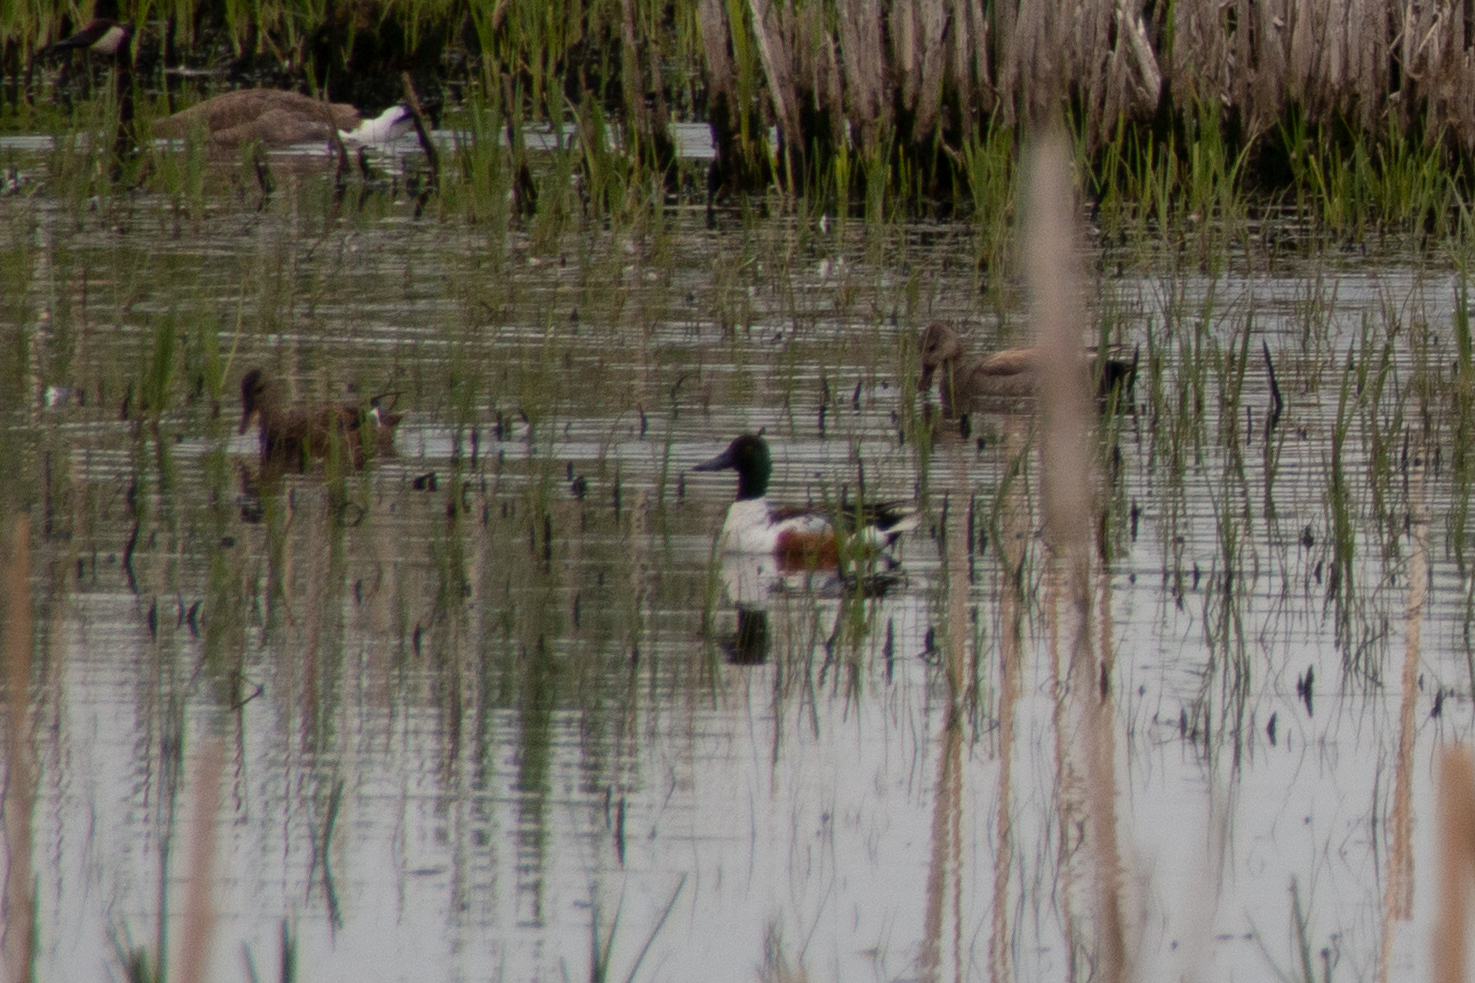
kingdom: Animalia
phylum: Chordata
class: Aves
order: Anseriformes
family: Anatidae
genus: Spatula
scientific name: Spatula clypeata
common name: Northern shoveler
